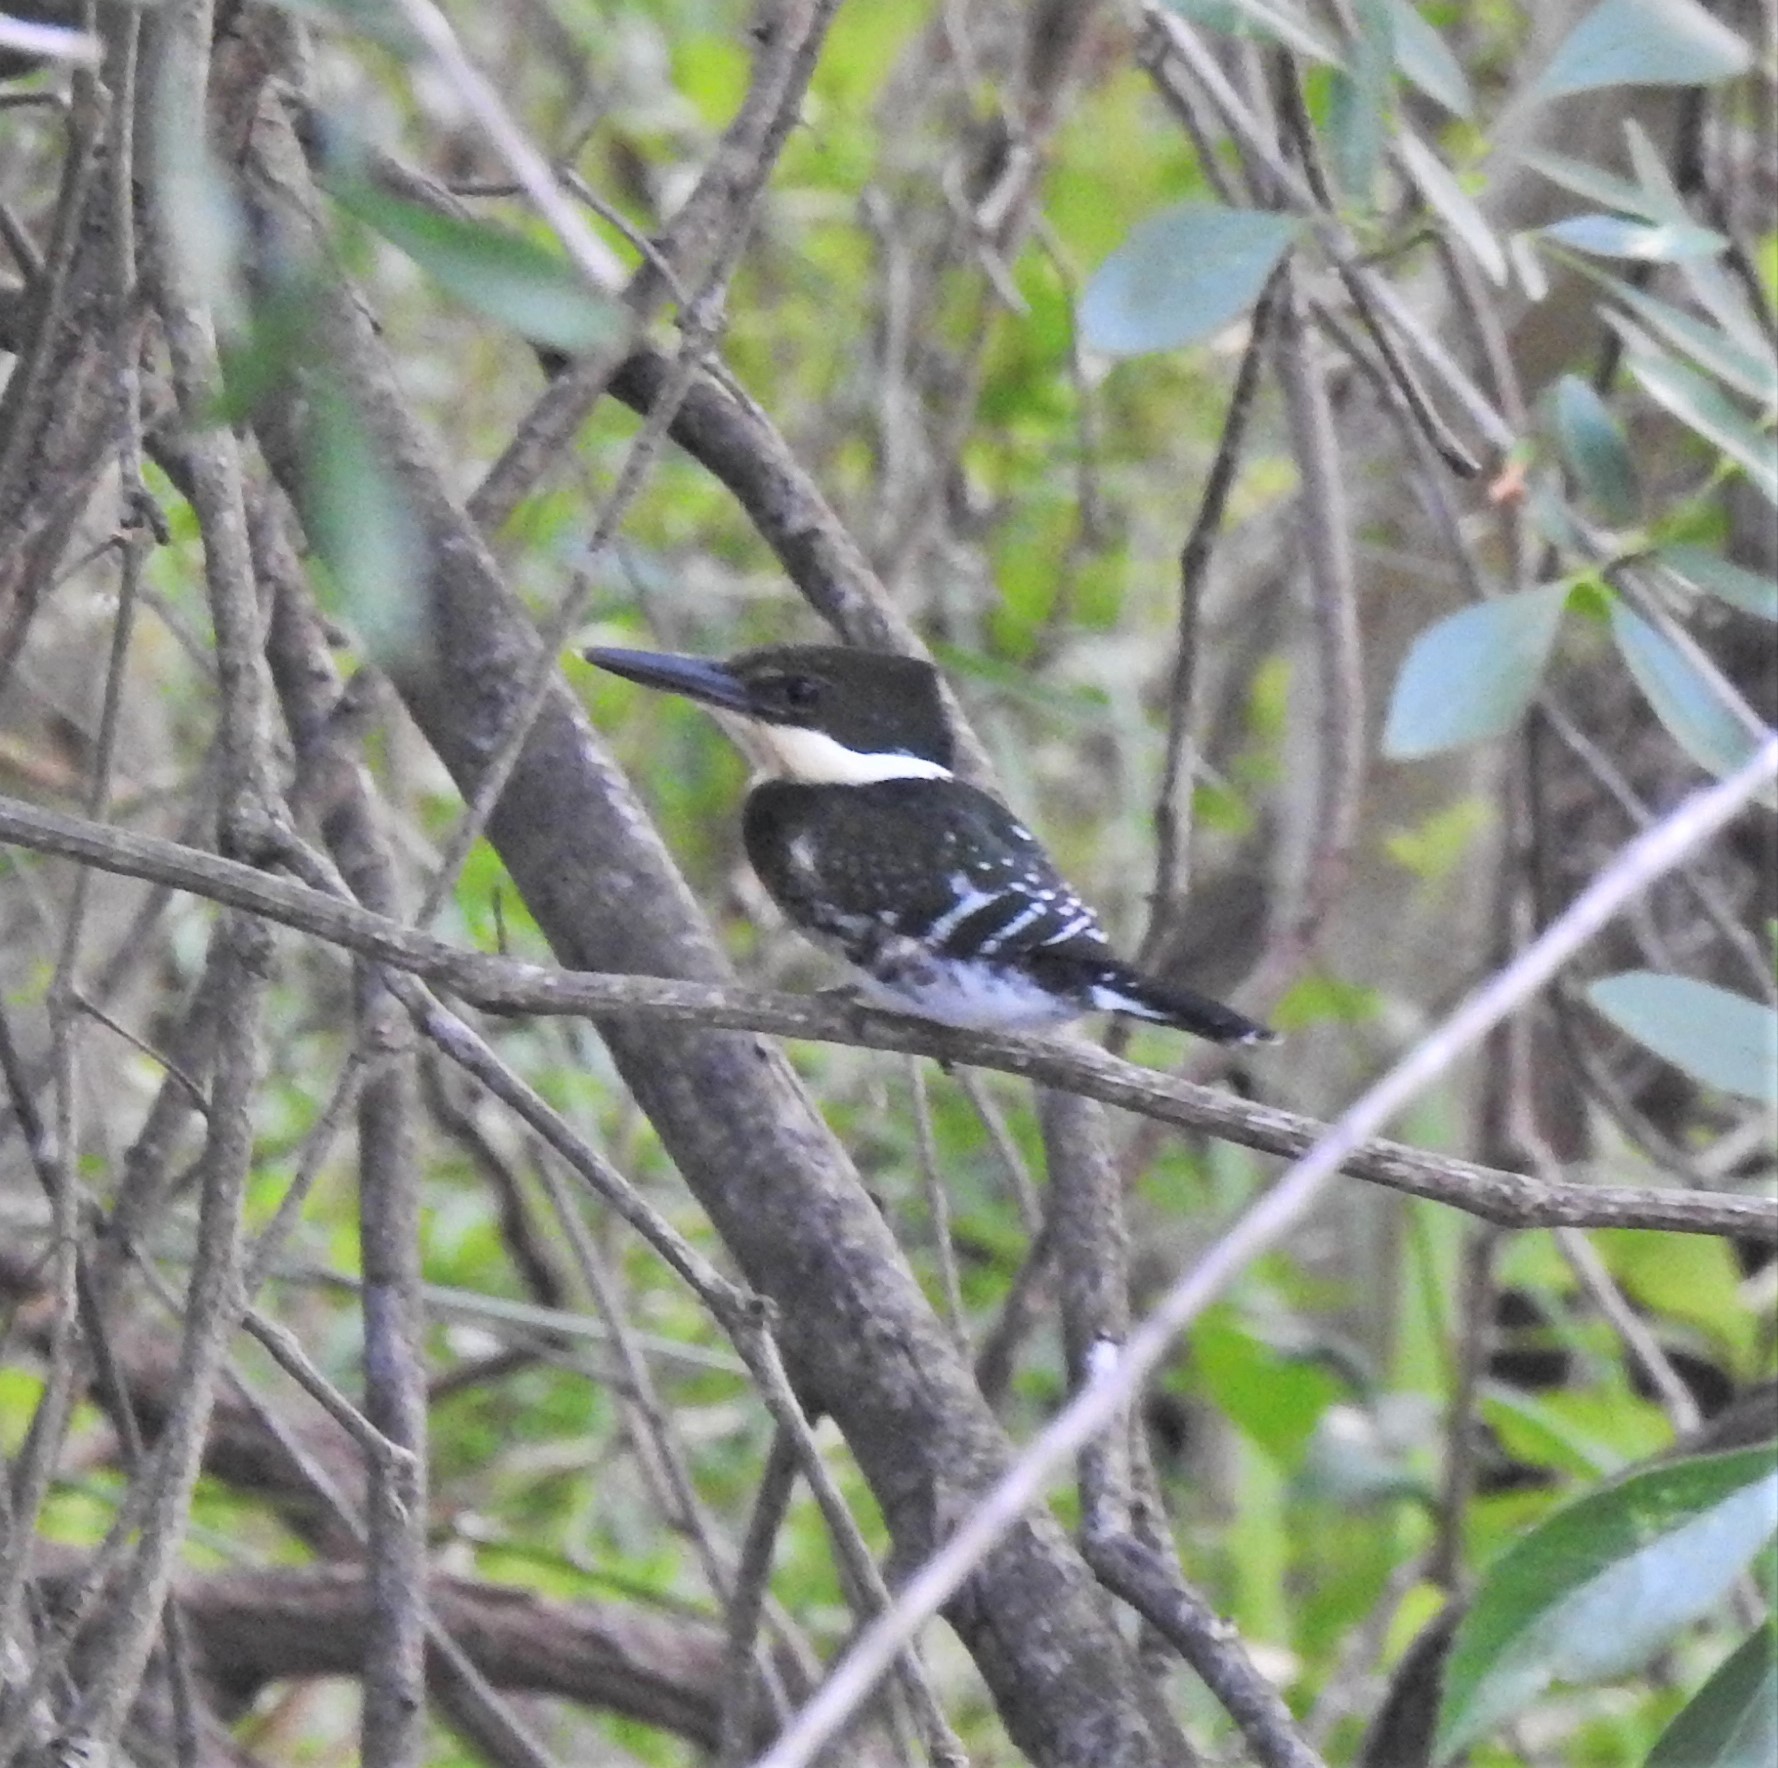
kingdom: Animalia
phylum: Chordata
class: Aves
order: Coraciiformes
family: Alcedinidae
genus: Chloroceryle
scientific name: Chloroceryle americana
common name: Green kingfisher
